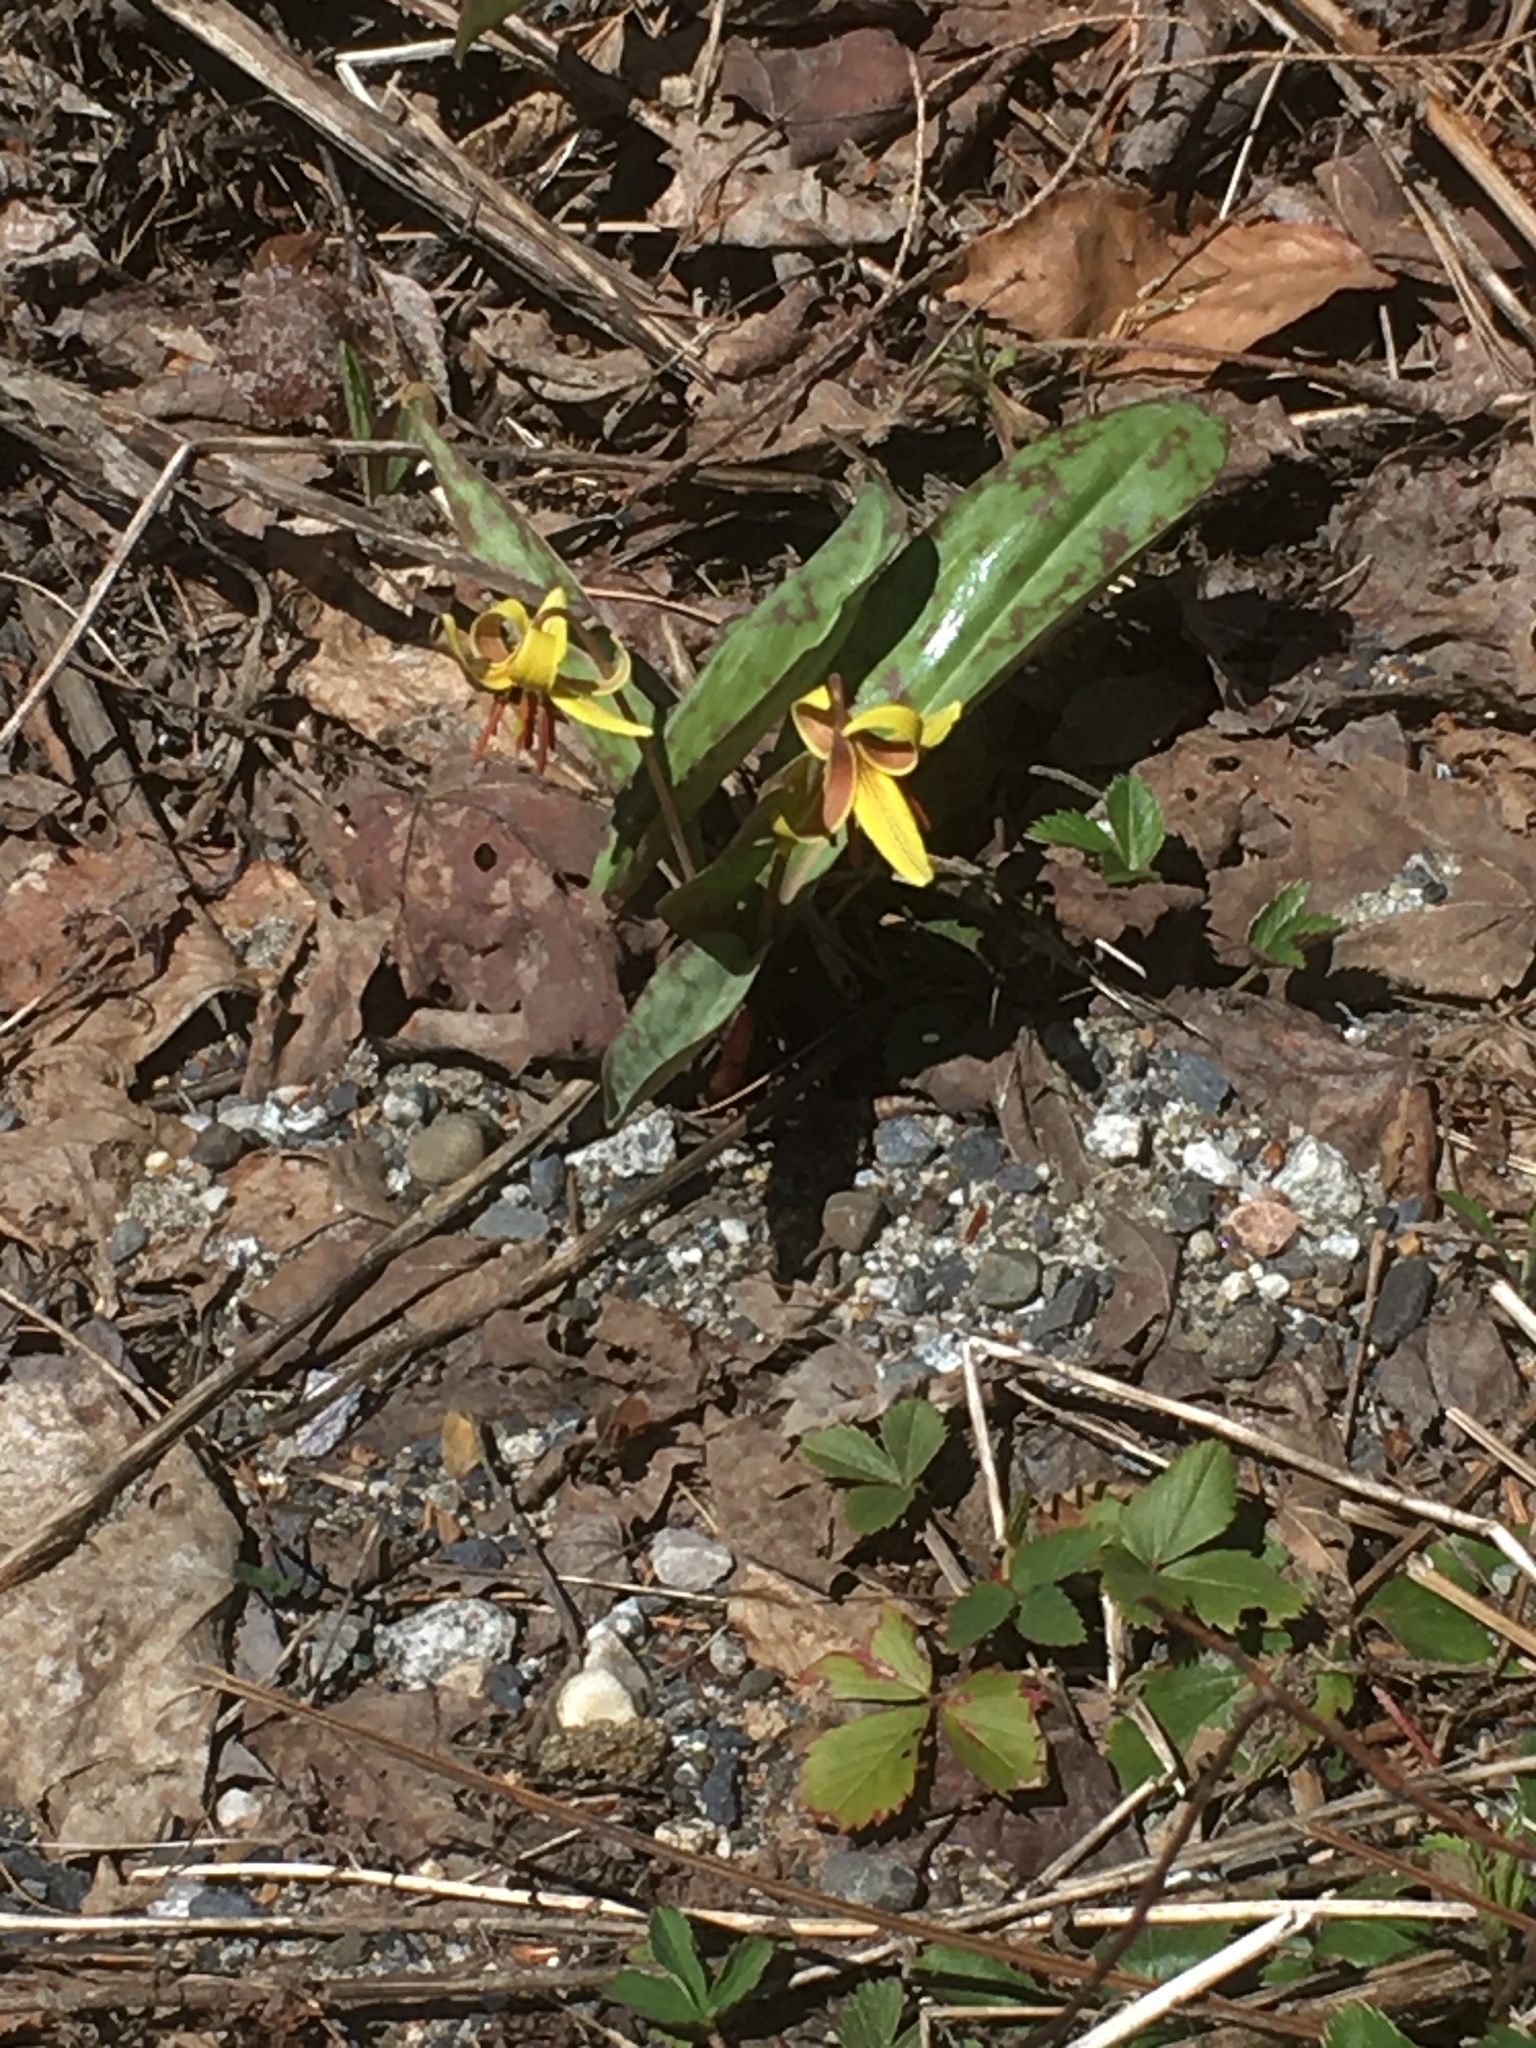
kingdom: Plantae
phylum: Tracheophyta
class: Liliopsida
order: Liliales
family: Liliaceae
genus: Erythronium
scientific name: Erythronium americanum
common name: Yellow adder's-tongue
